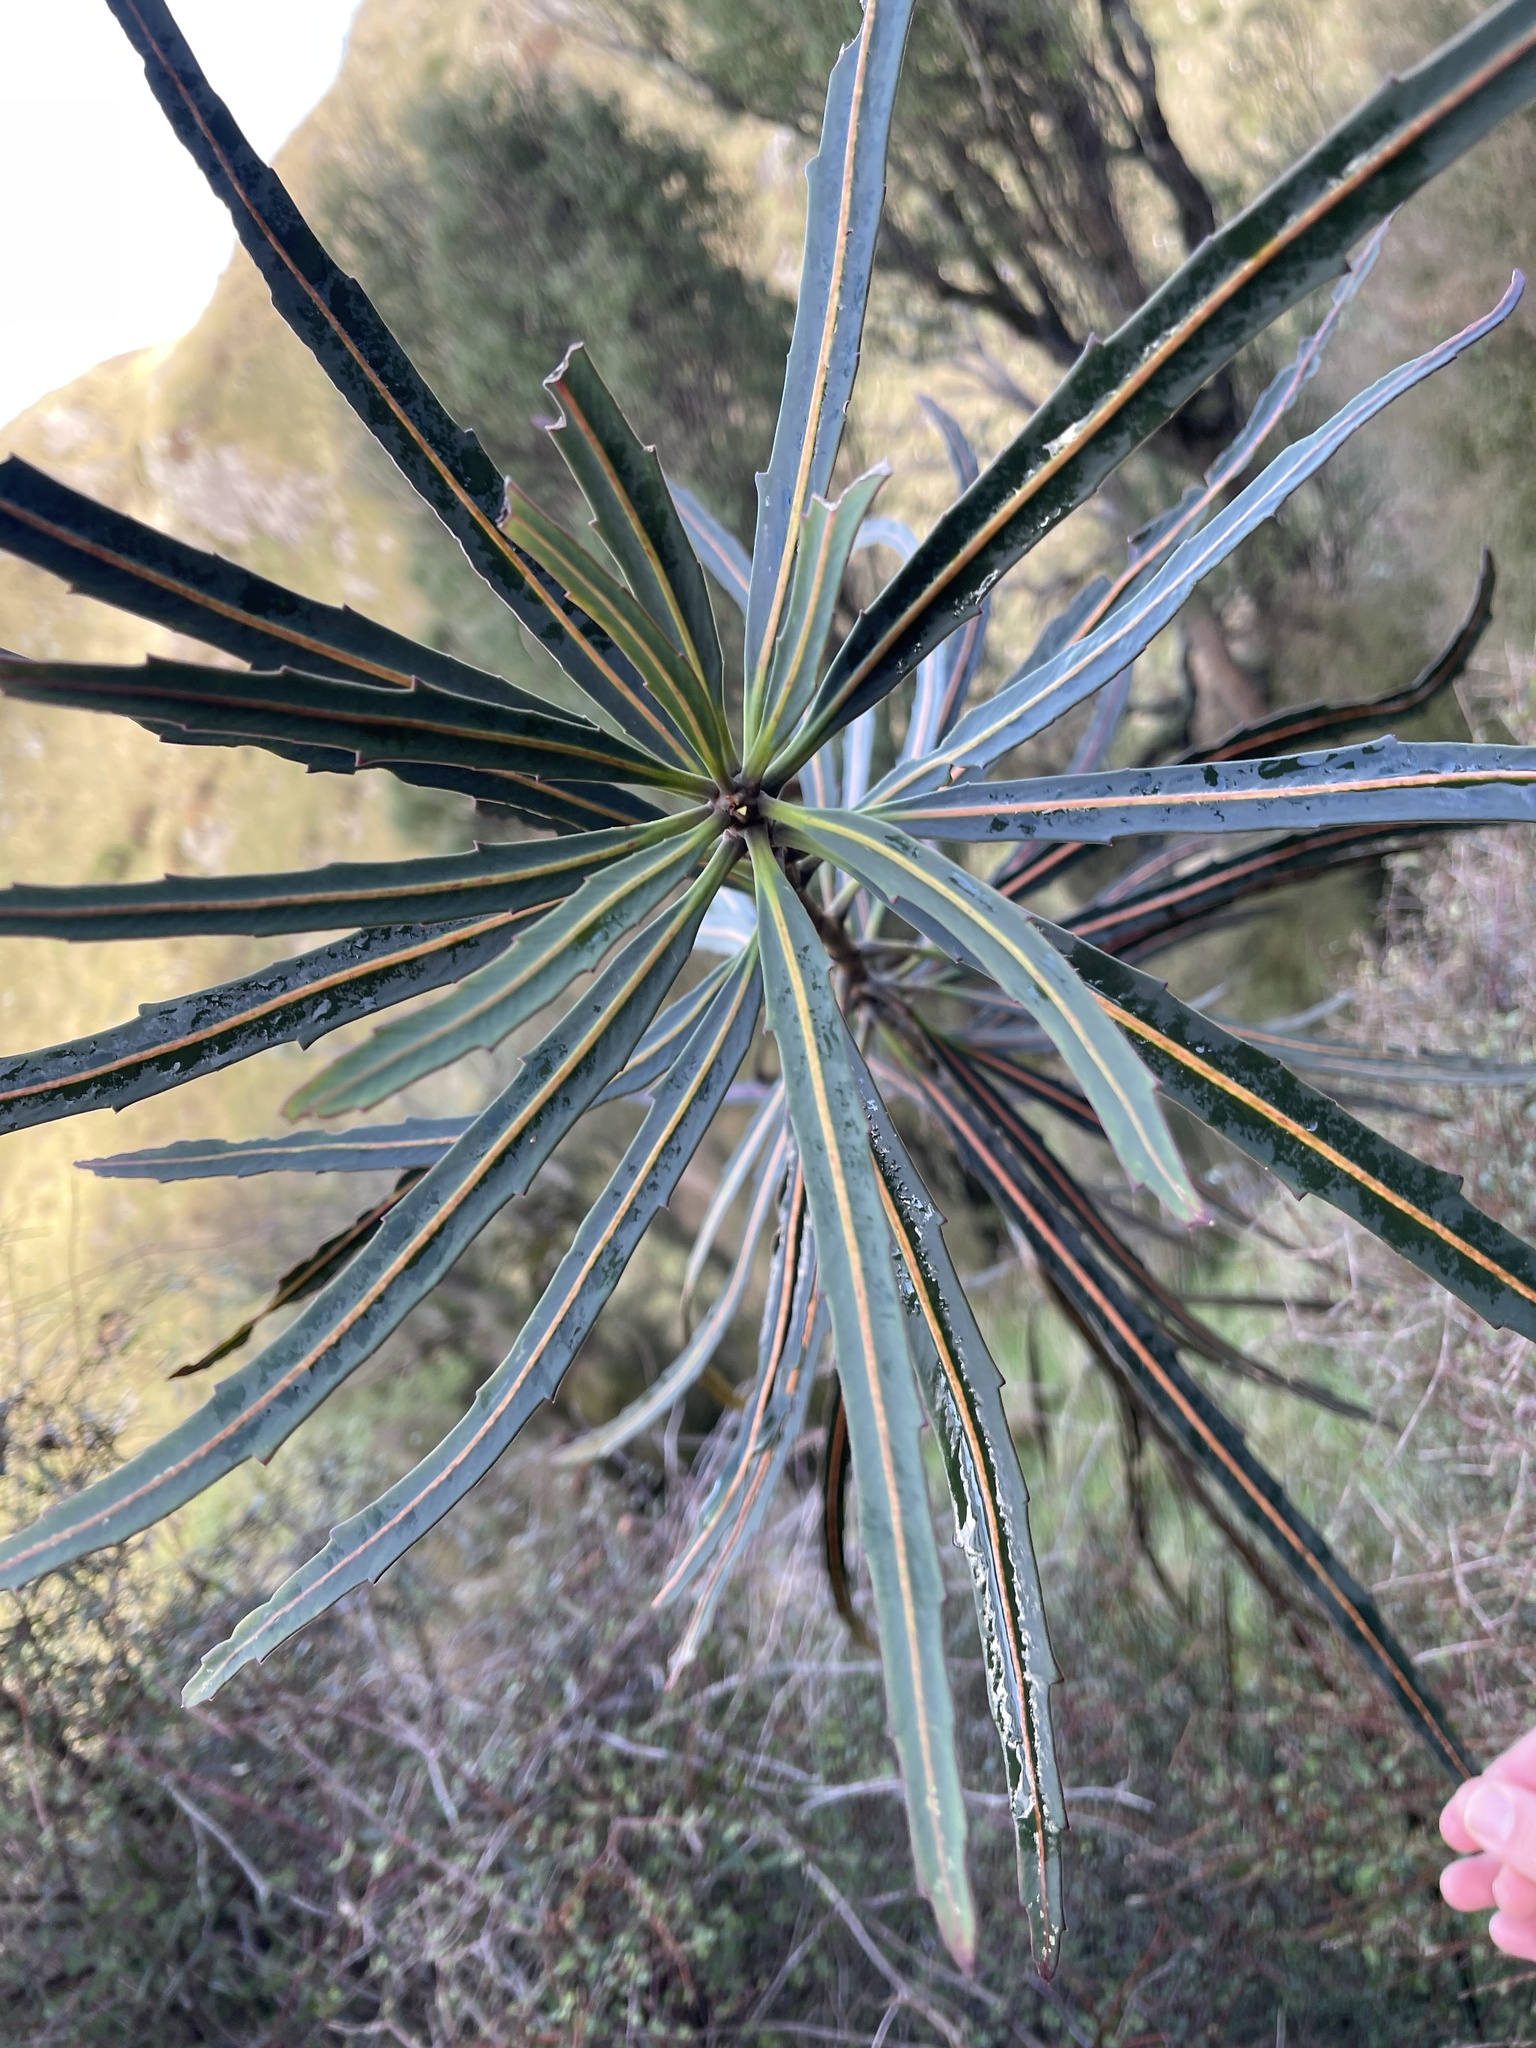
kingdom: Plantae
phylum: Tracheophyta
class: Magnoliopsida
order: Apiales
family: Araliaceae
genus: Pseudopanax
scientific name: Pseudopanax crassifolius
